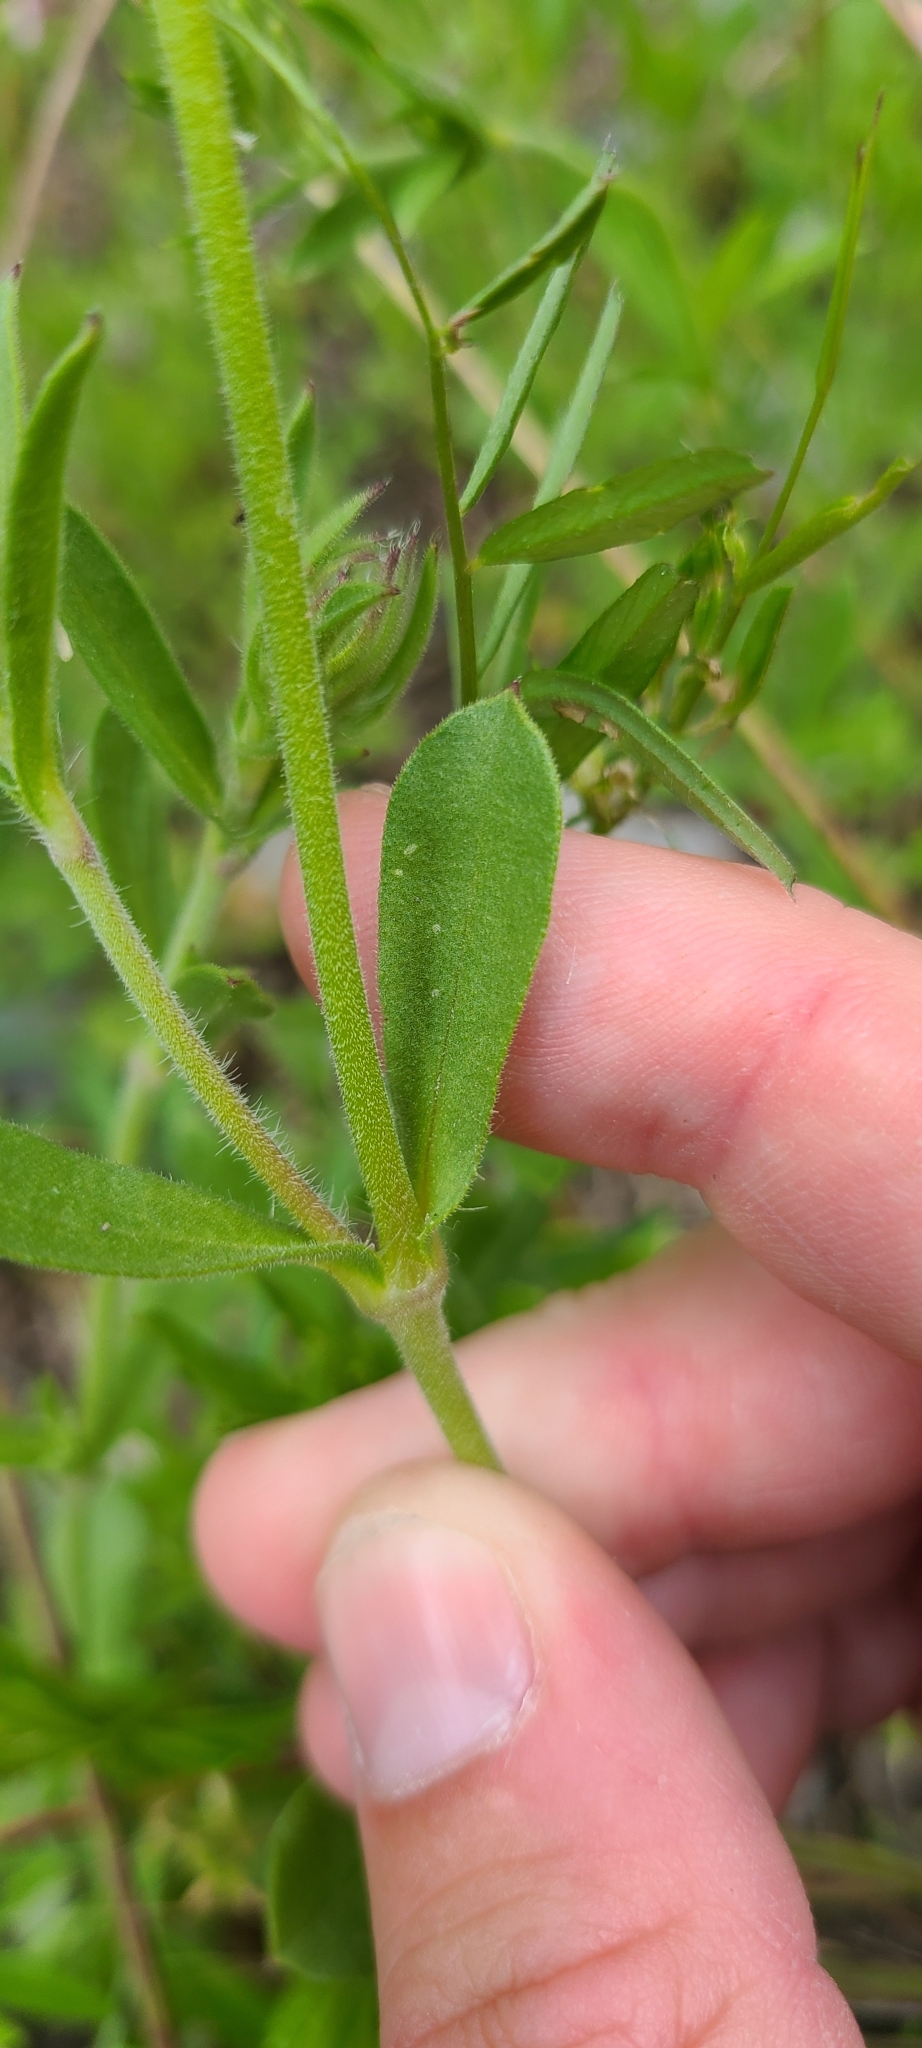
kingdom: Plantae
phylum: Tracheophyta
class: Magnoliopsida
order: Caryophyllales
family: Caryophyllaceae
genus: Silene
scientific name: Silene gallica
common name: Small-flowered catchfly
